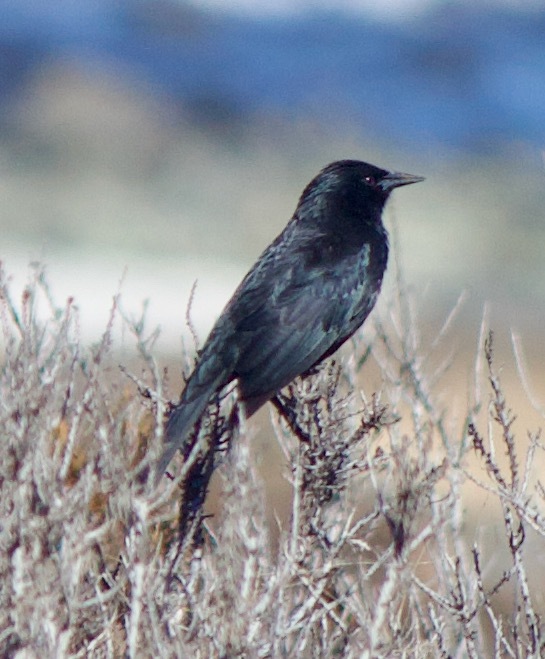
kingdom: Animalia
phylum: Chordata
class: Aves
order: Passeriformes
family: Icteridae
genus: Curaeus
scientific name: Curaeus curaeus
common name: Austral blackbird
